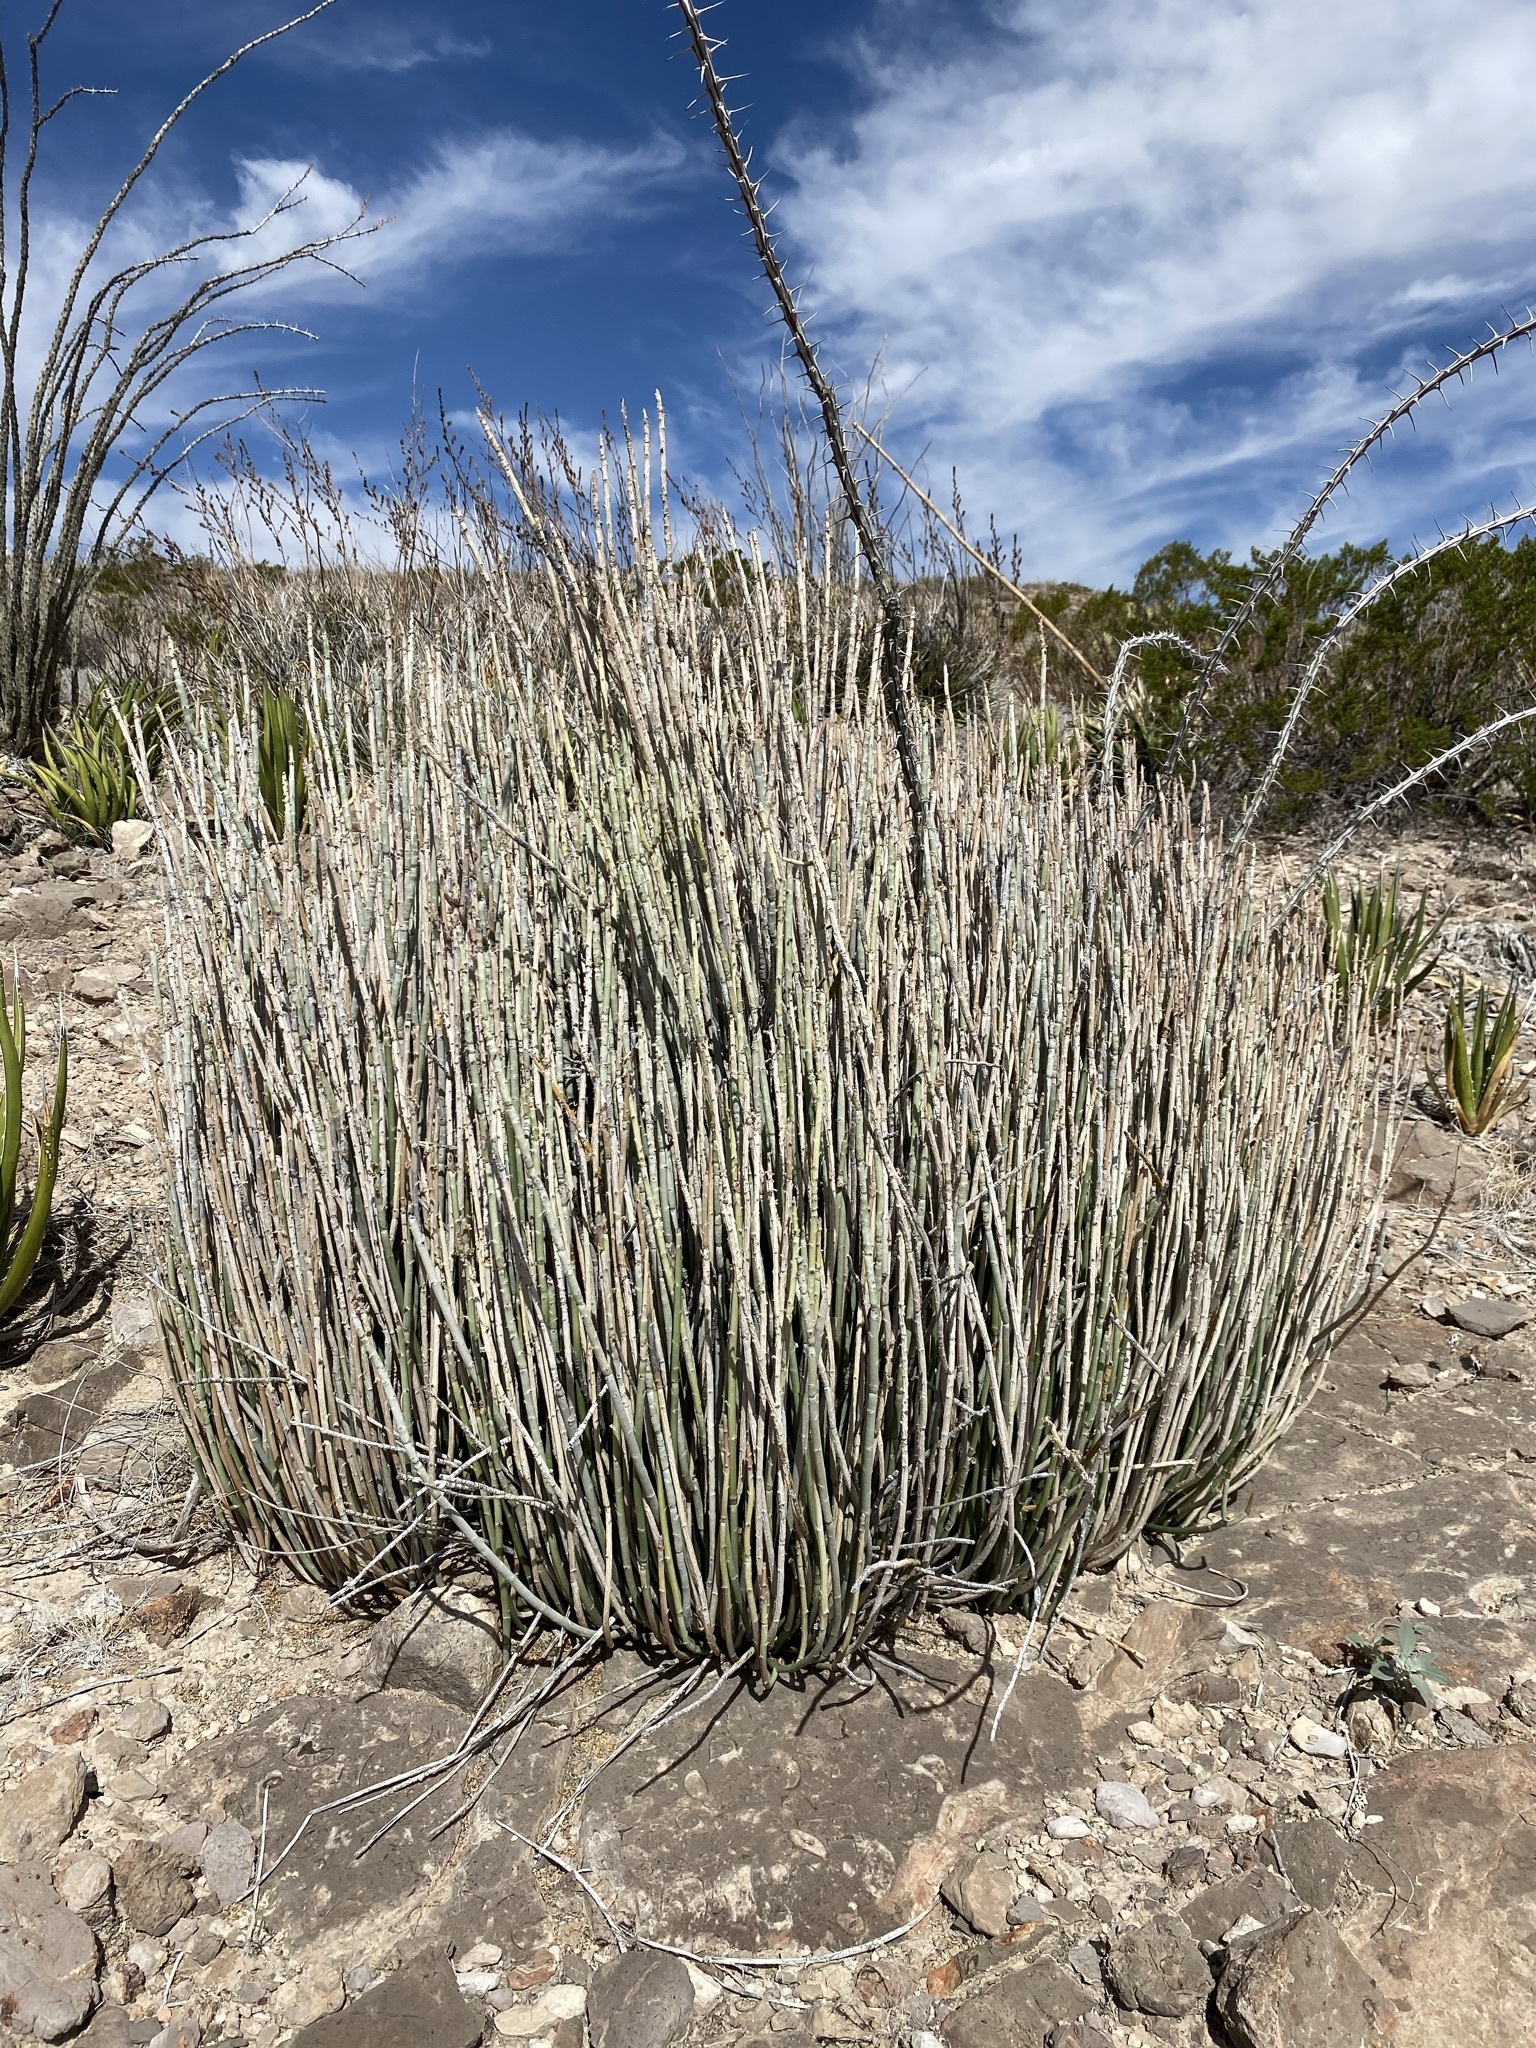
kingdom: Plantae
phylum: Tracheophyta
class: Magnoliopsida
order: Malpighiales
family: Euphorbiaceae
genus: Euphorbia
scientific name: Euphorbia antisyphilitica
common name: Candelilla
